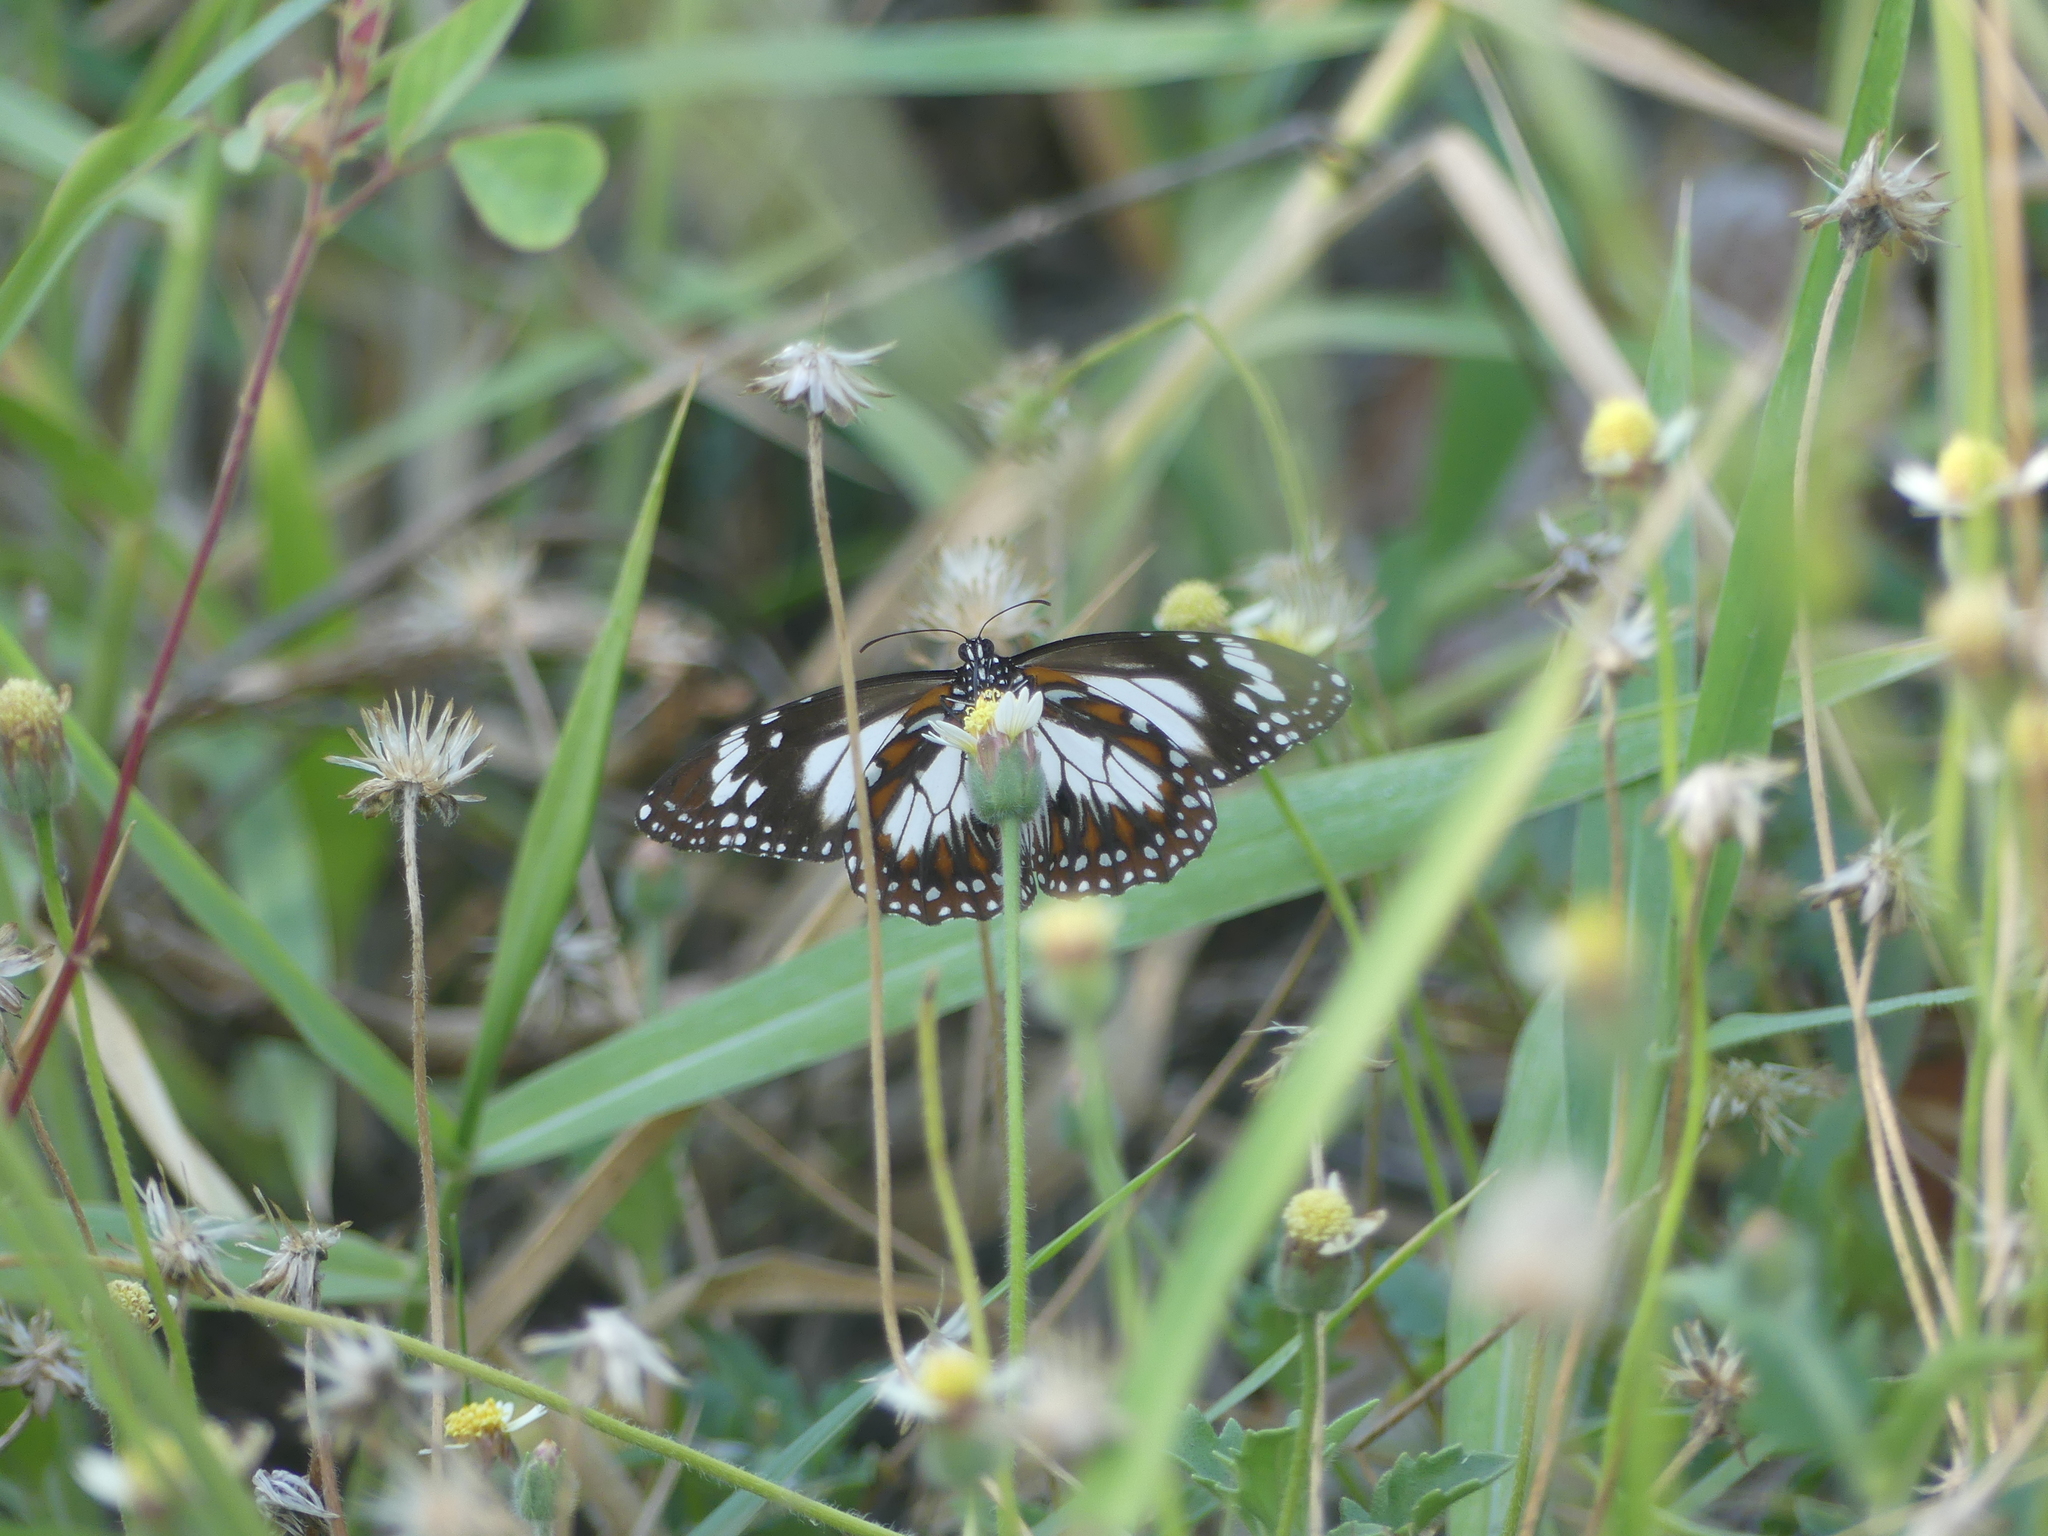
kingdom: Animalia
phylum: Arthropoda
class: Insecta
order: Lepidoptera
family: Nymphalidae
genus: Danaus
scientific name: Danaus affinis
